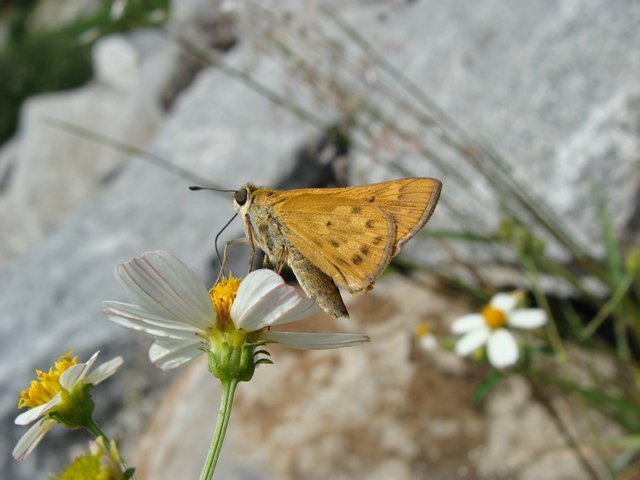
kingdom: Animalia
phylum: Arthropoda
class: Insecta
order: Lepidoptera
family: Hesperiidae
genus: Hylephila
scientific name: Hylephila phyleus
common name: Fiery skipper
